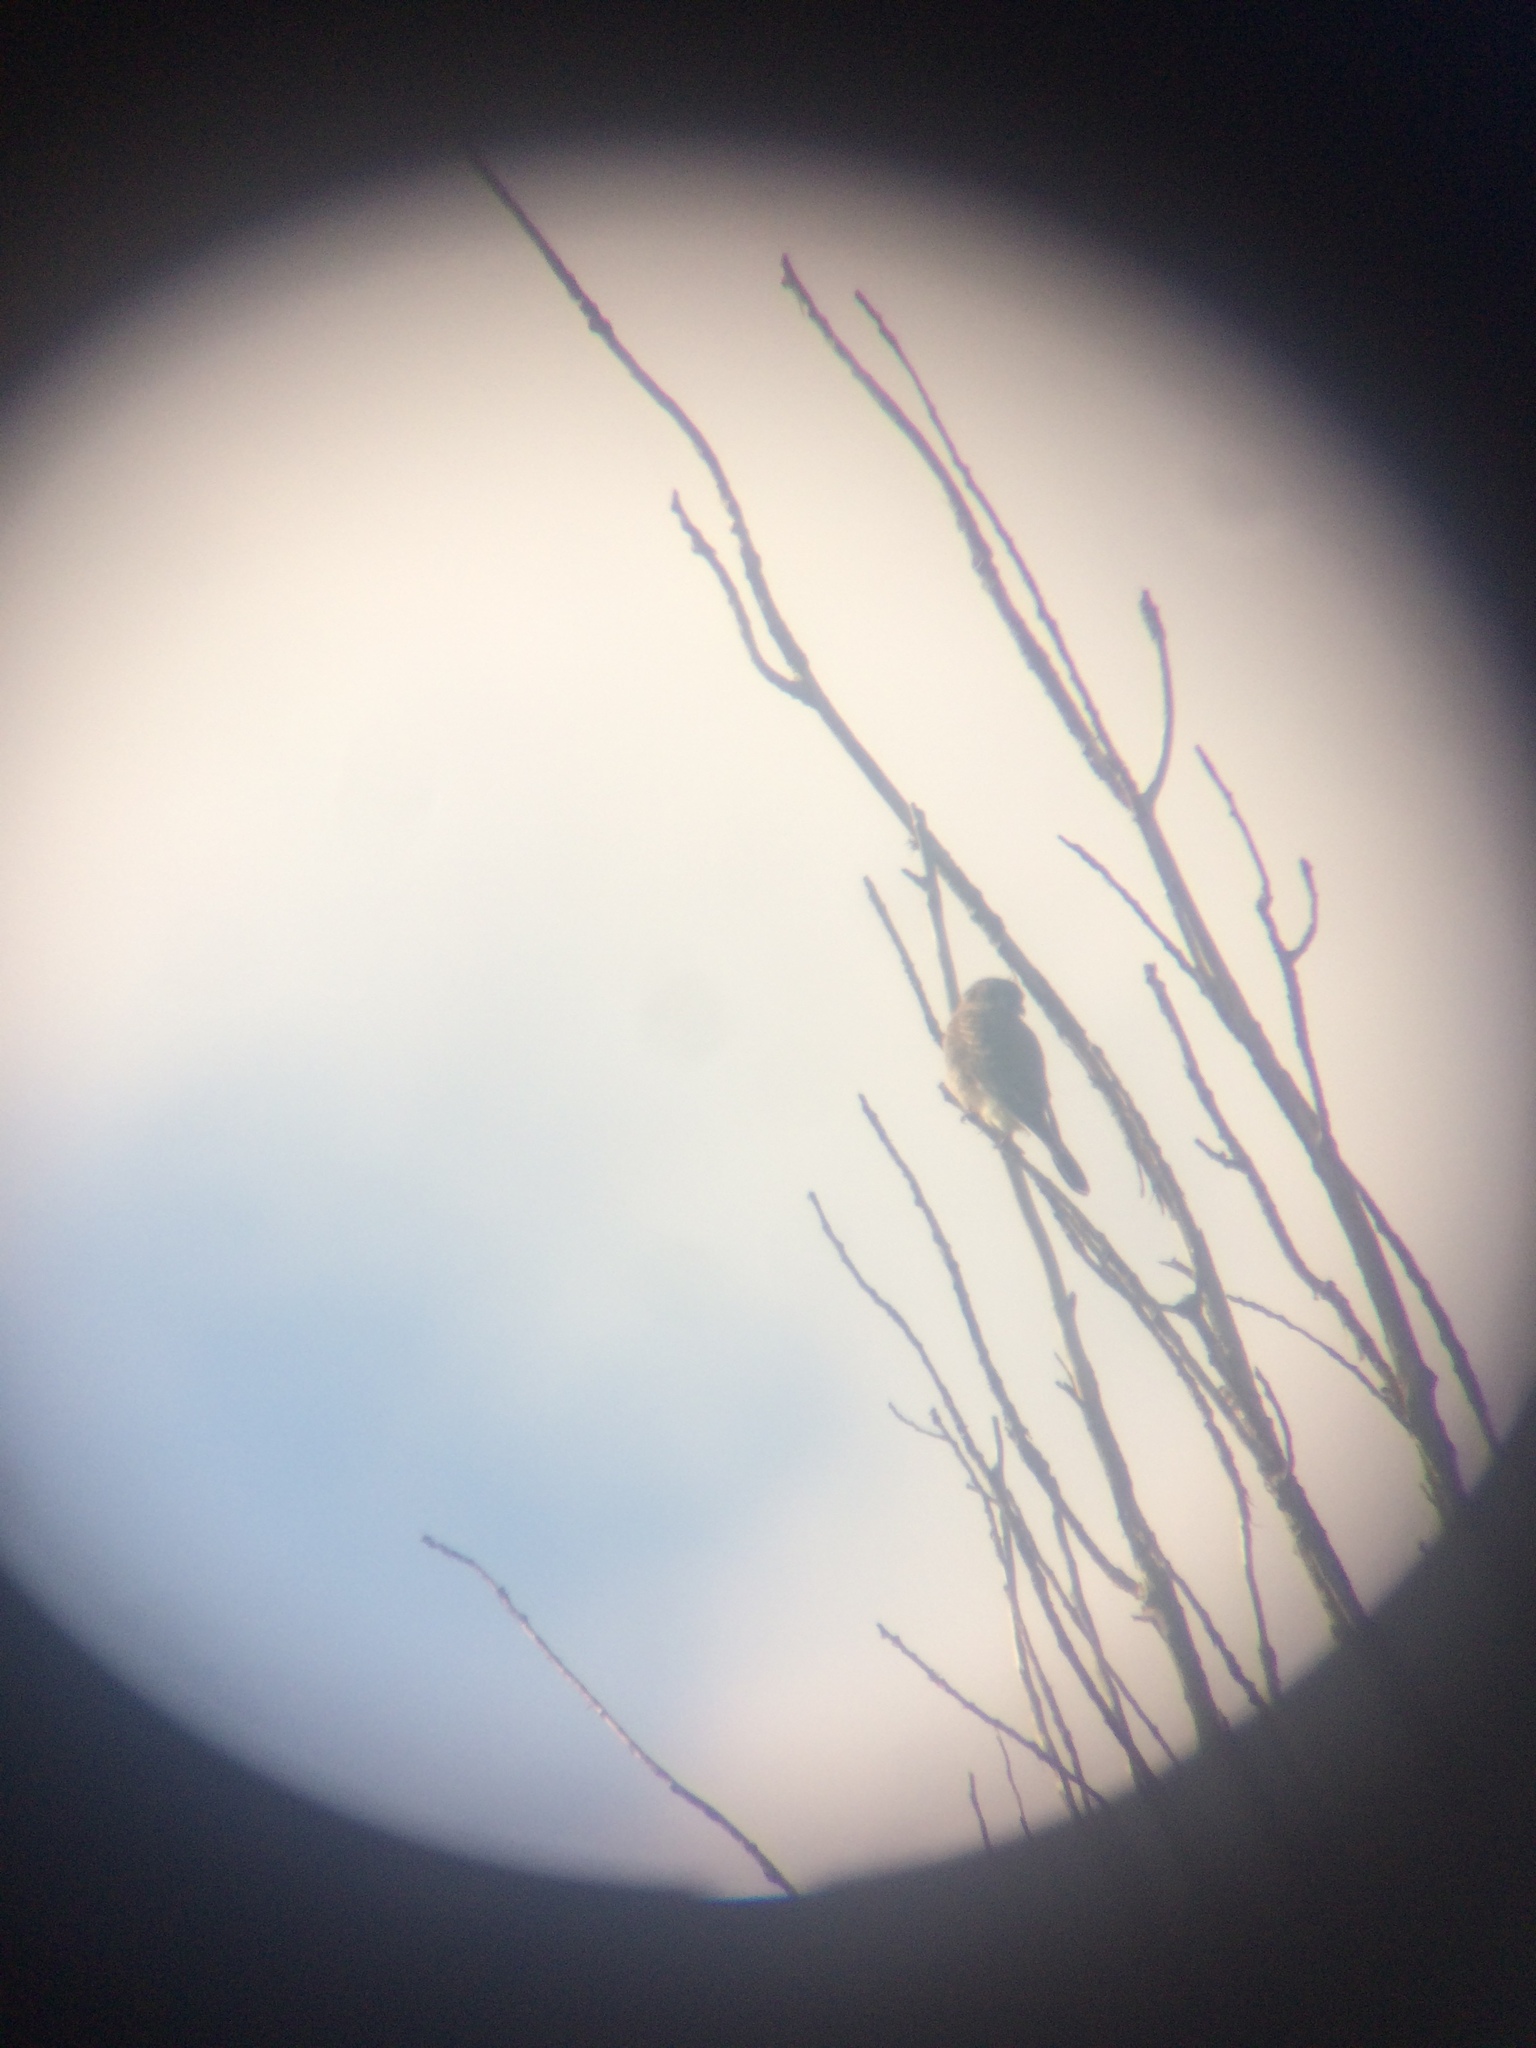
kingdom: Animalia
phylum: Chordata
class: Aves
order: Falconiformes
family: Falconidae
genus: Falco
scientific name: Falco sparverius
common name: American kestrel
